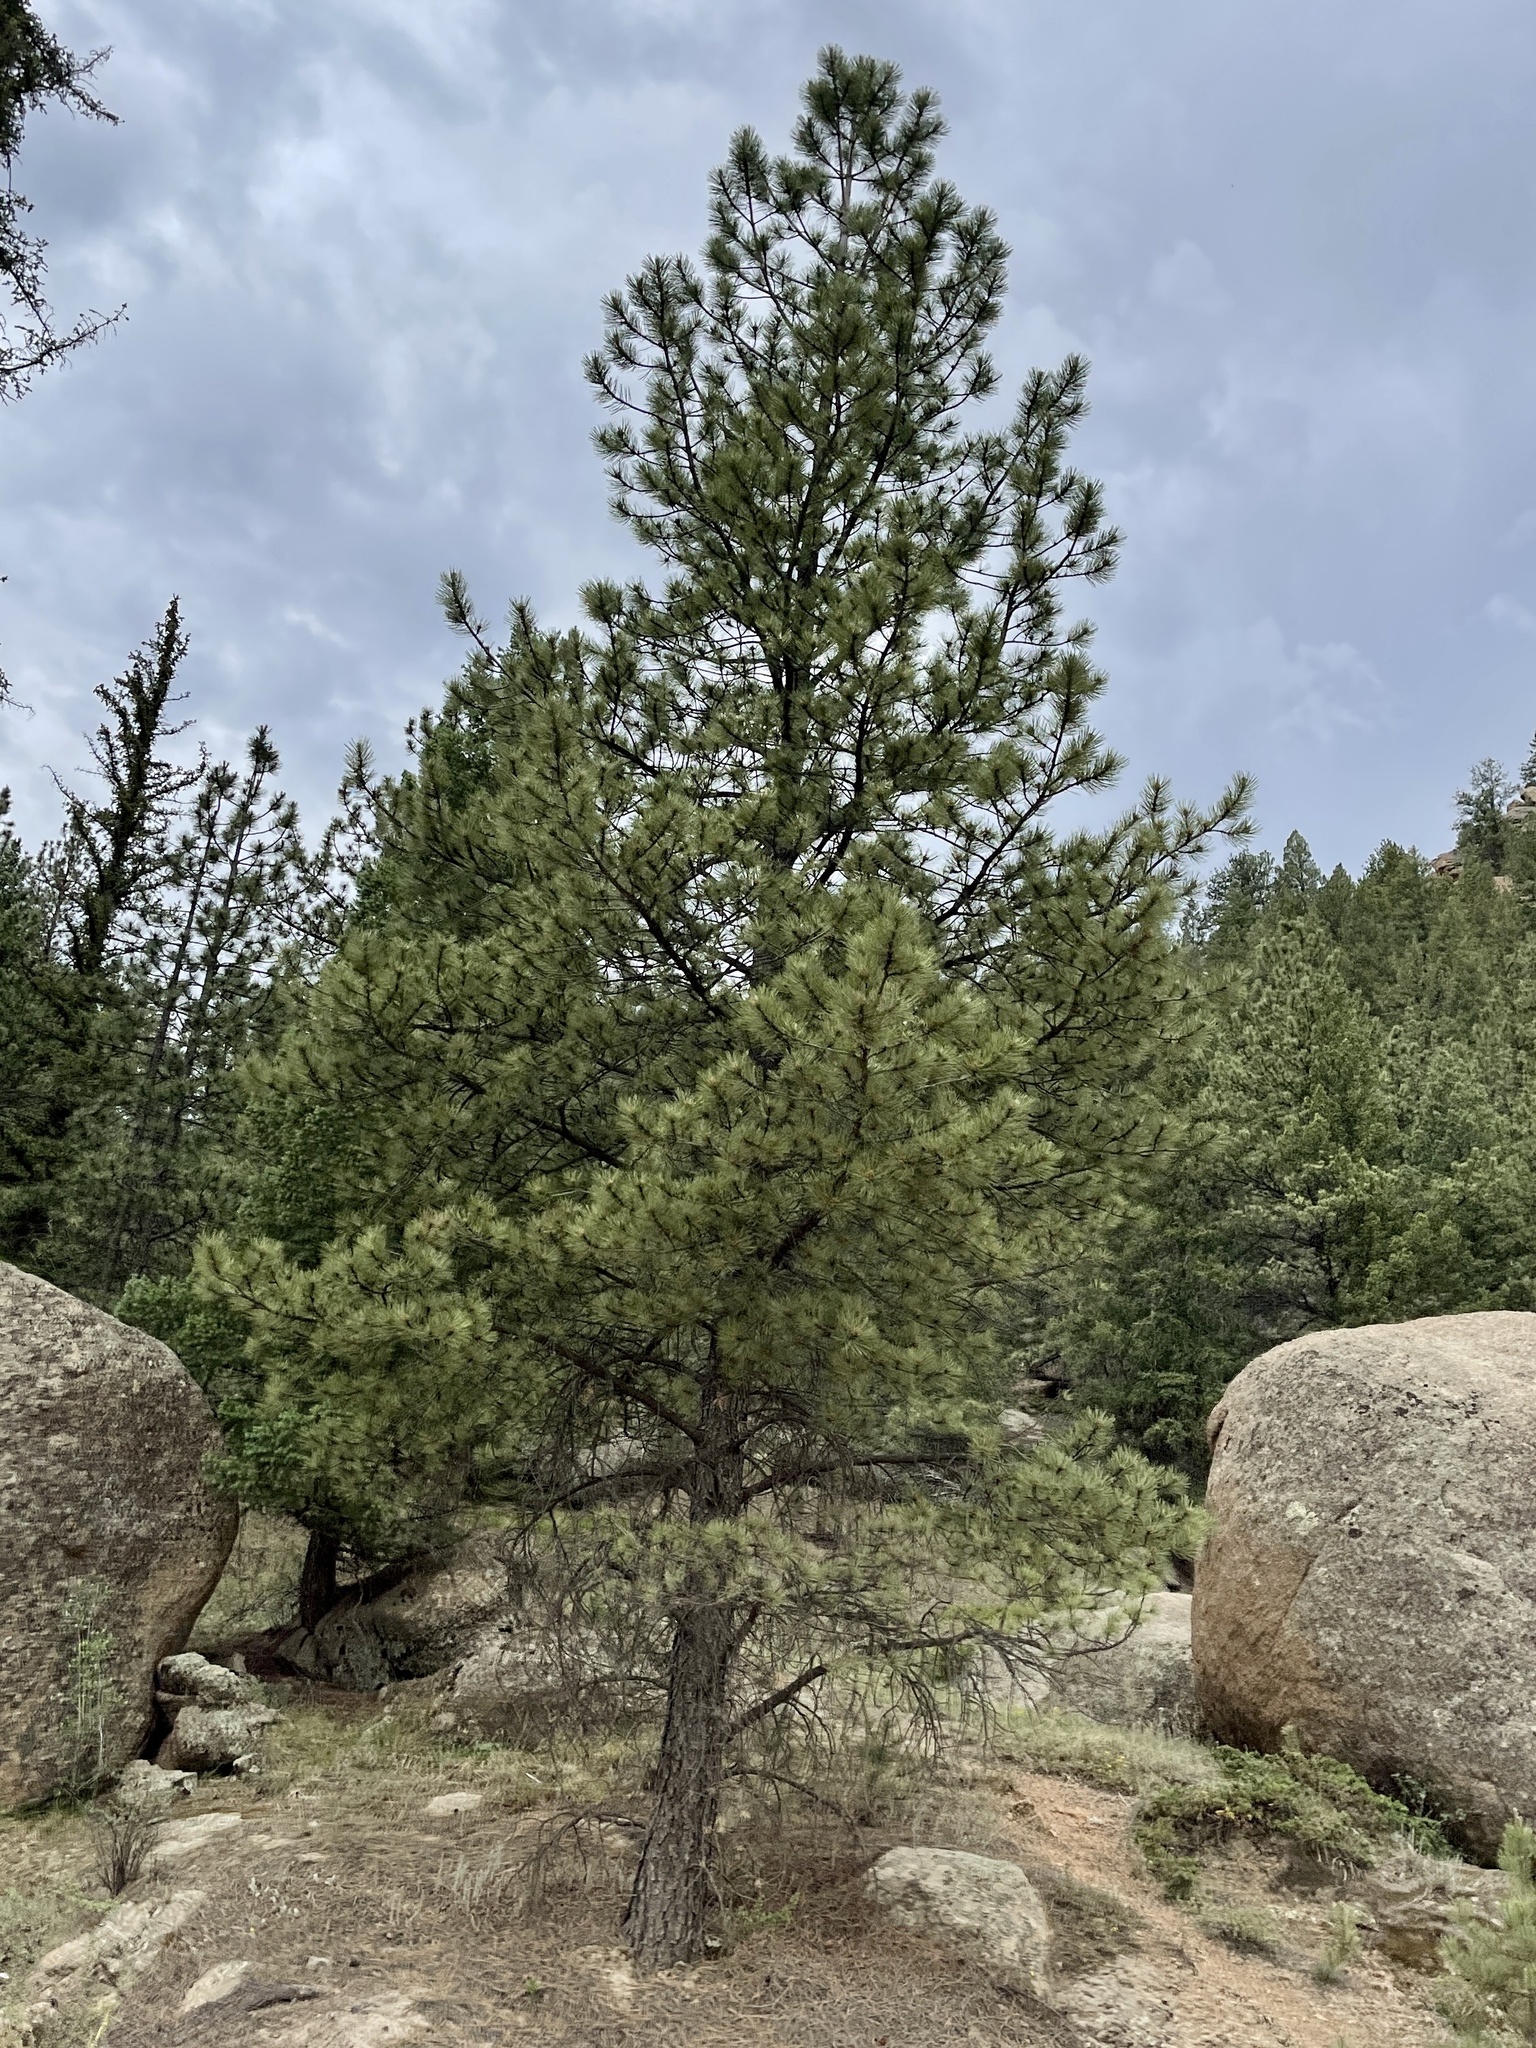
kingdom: Plantae
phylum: Tracheophyta
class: Pinopsida
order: Pinales
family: Pinaceae
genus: Pinus
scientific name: Pinus ponderosa
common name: Western yellow-pine
